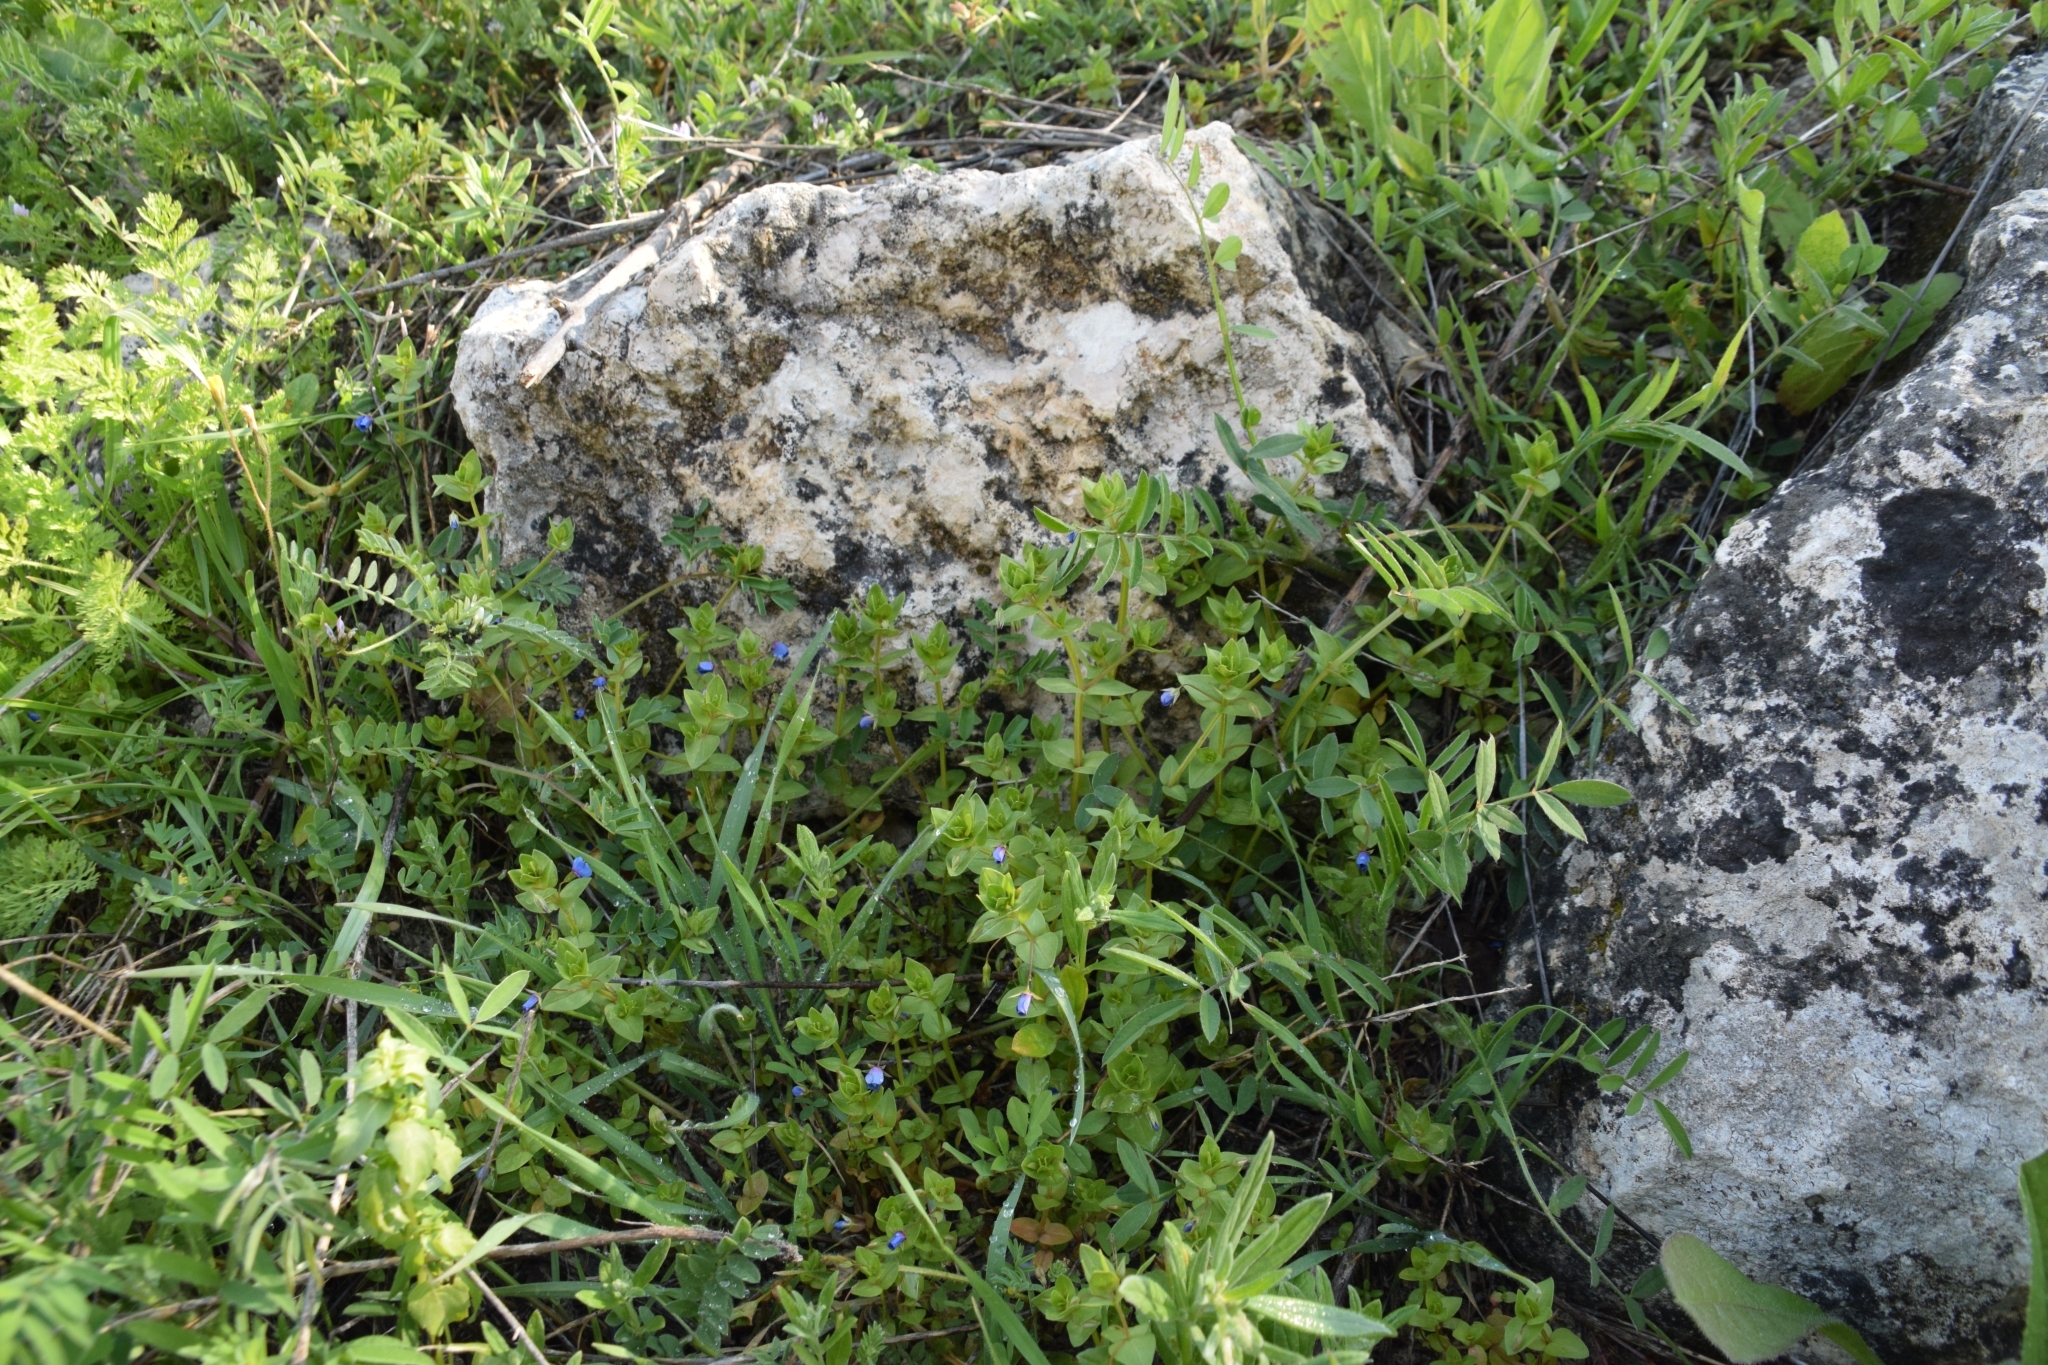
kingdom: Plantae
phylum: Tracheophyta
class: Magnoliopsida
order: Ericales
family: Primulaceae
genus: Lysimachia
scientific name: Lysimachia loeflingii
